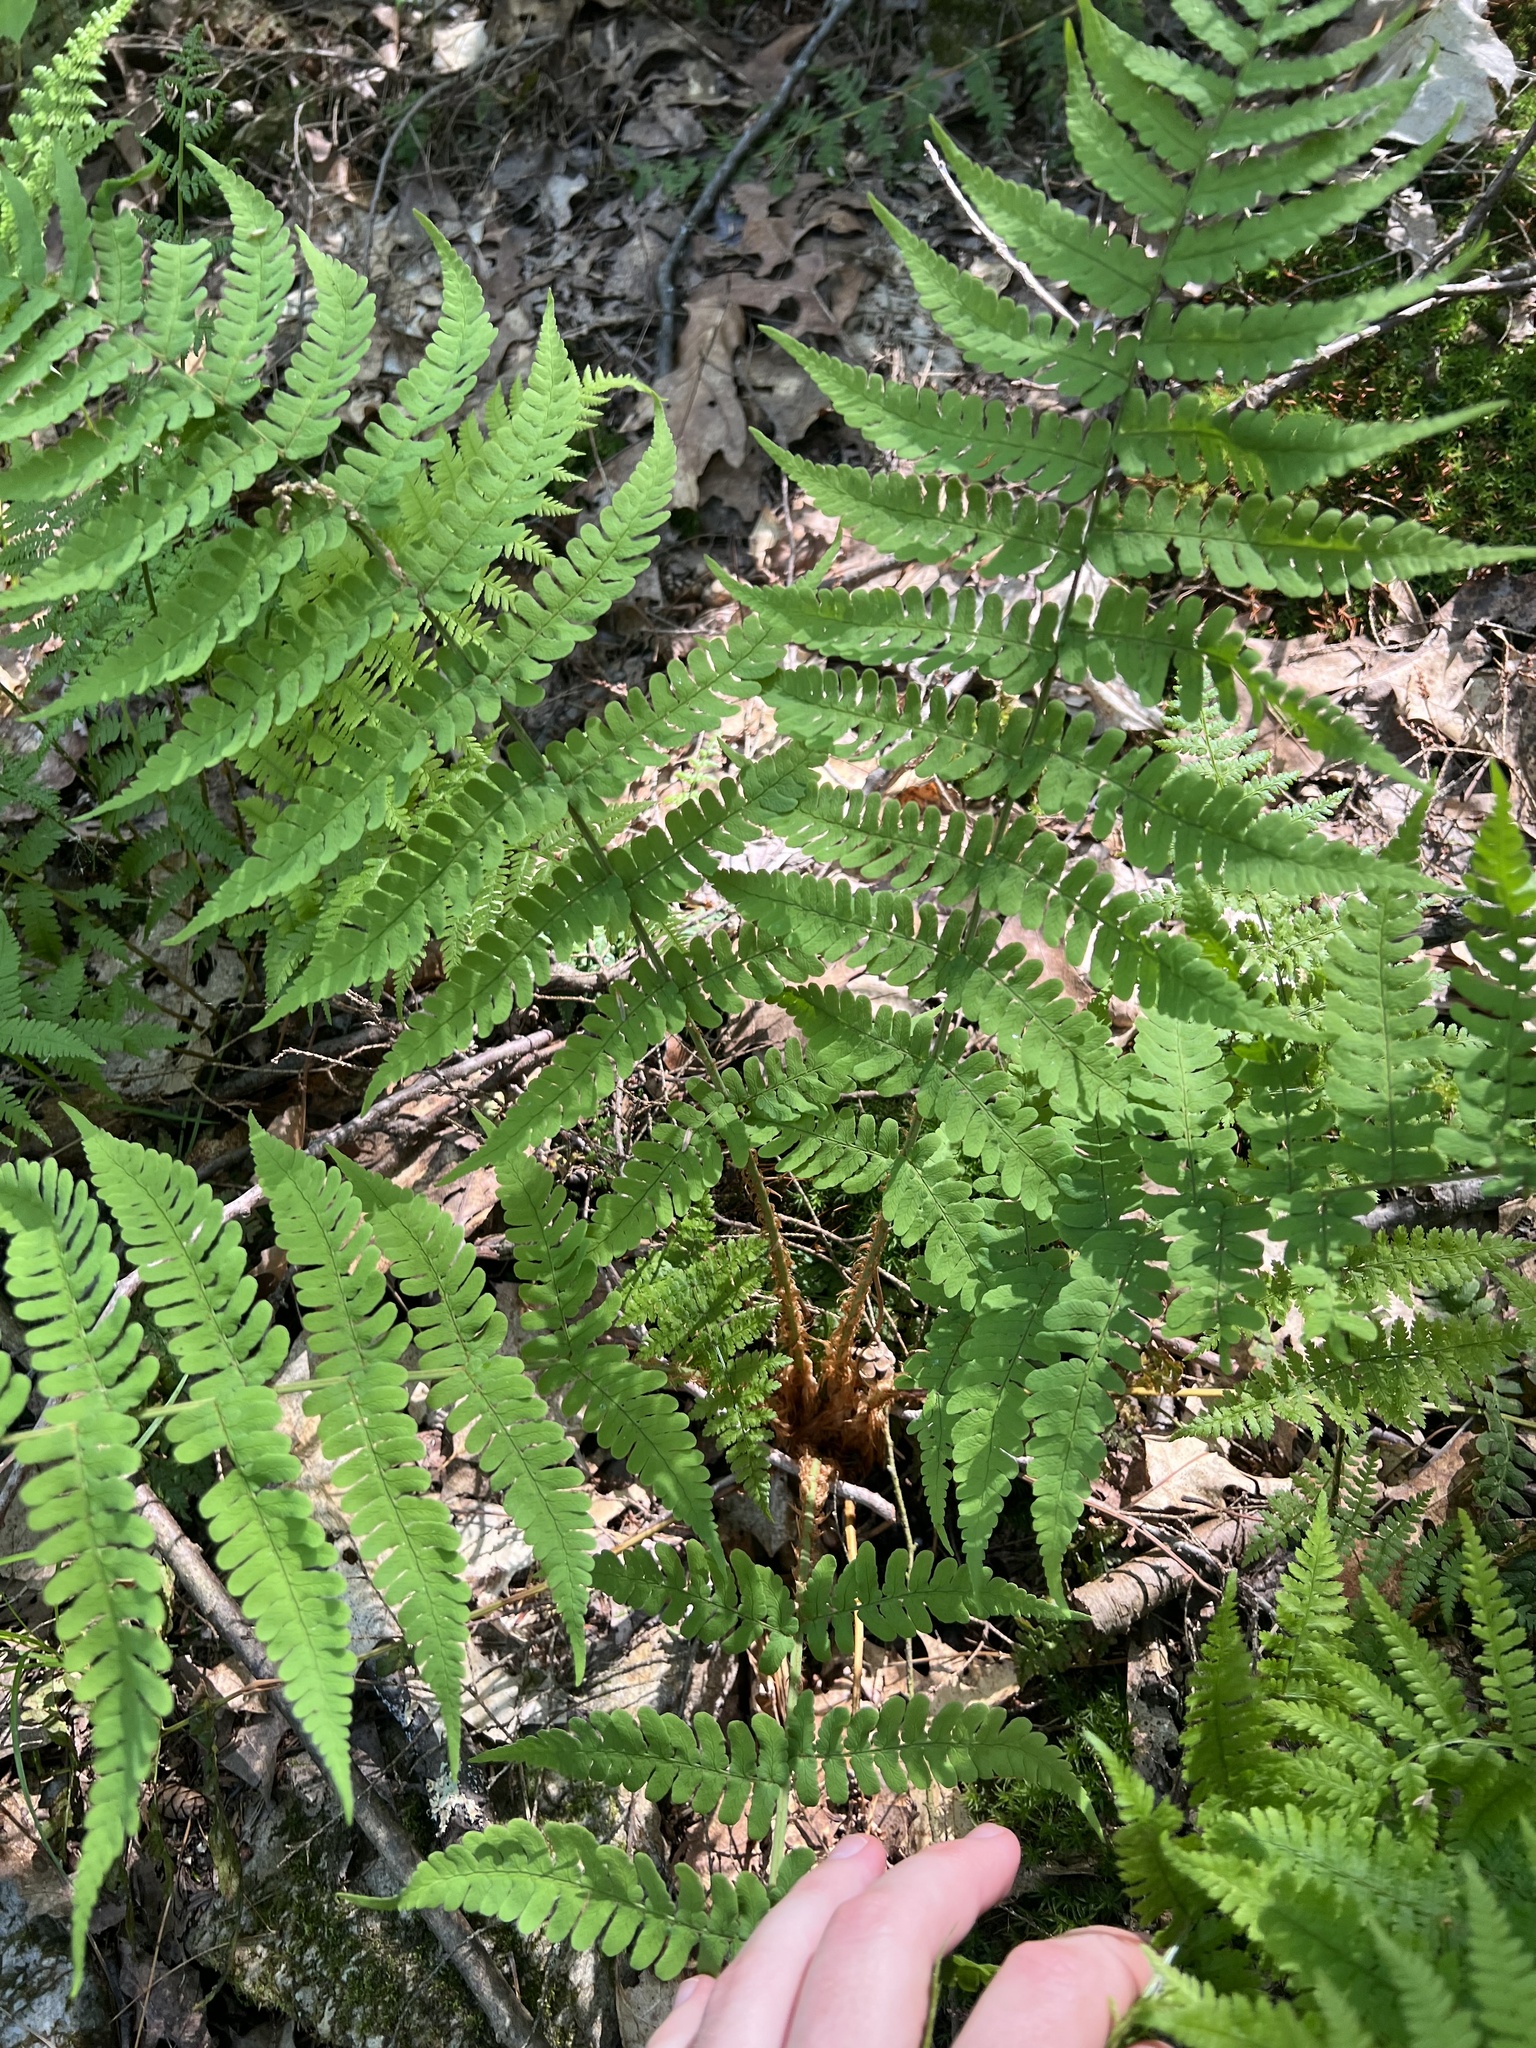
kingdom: Plantae
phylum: Tracheophyta
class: Polypodiopsida
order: Polypodiales
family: Dryopteridaceae
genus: Dryopteris
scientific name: Dryopteris marginalis
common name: Marginal wood fern
